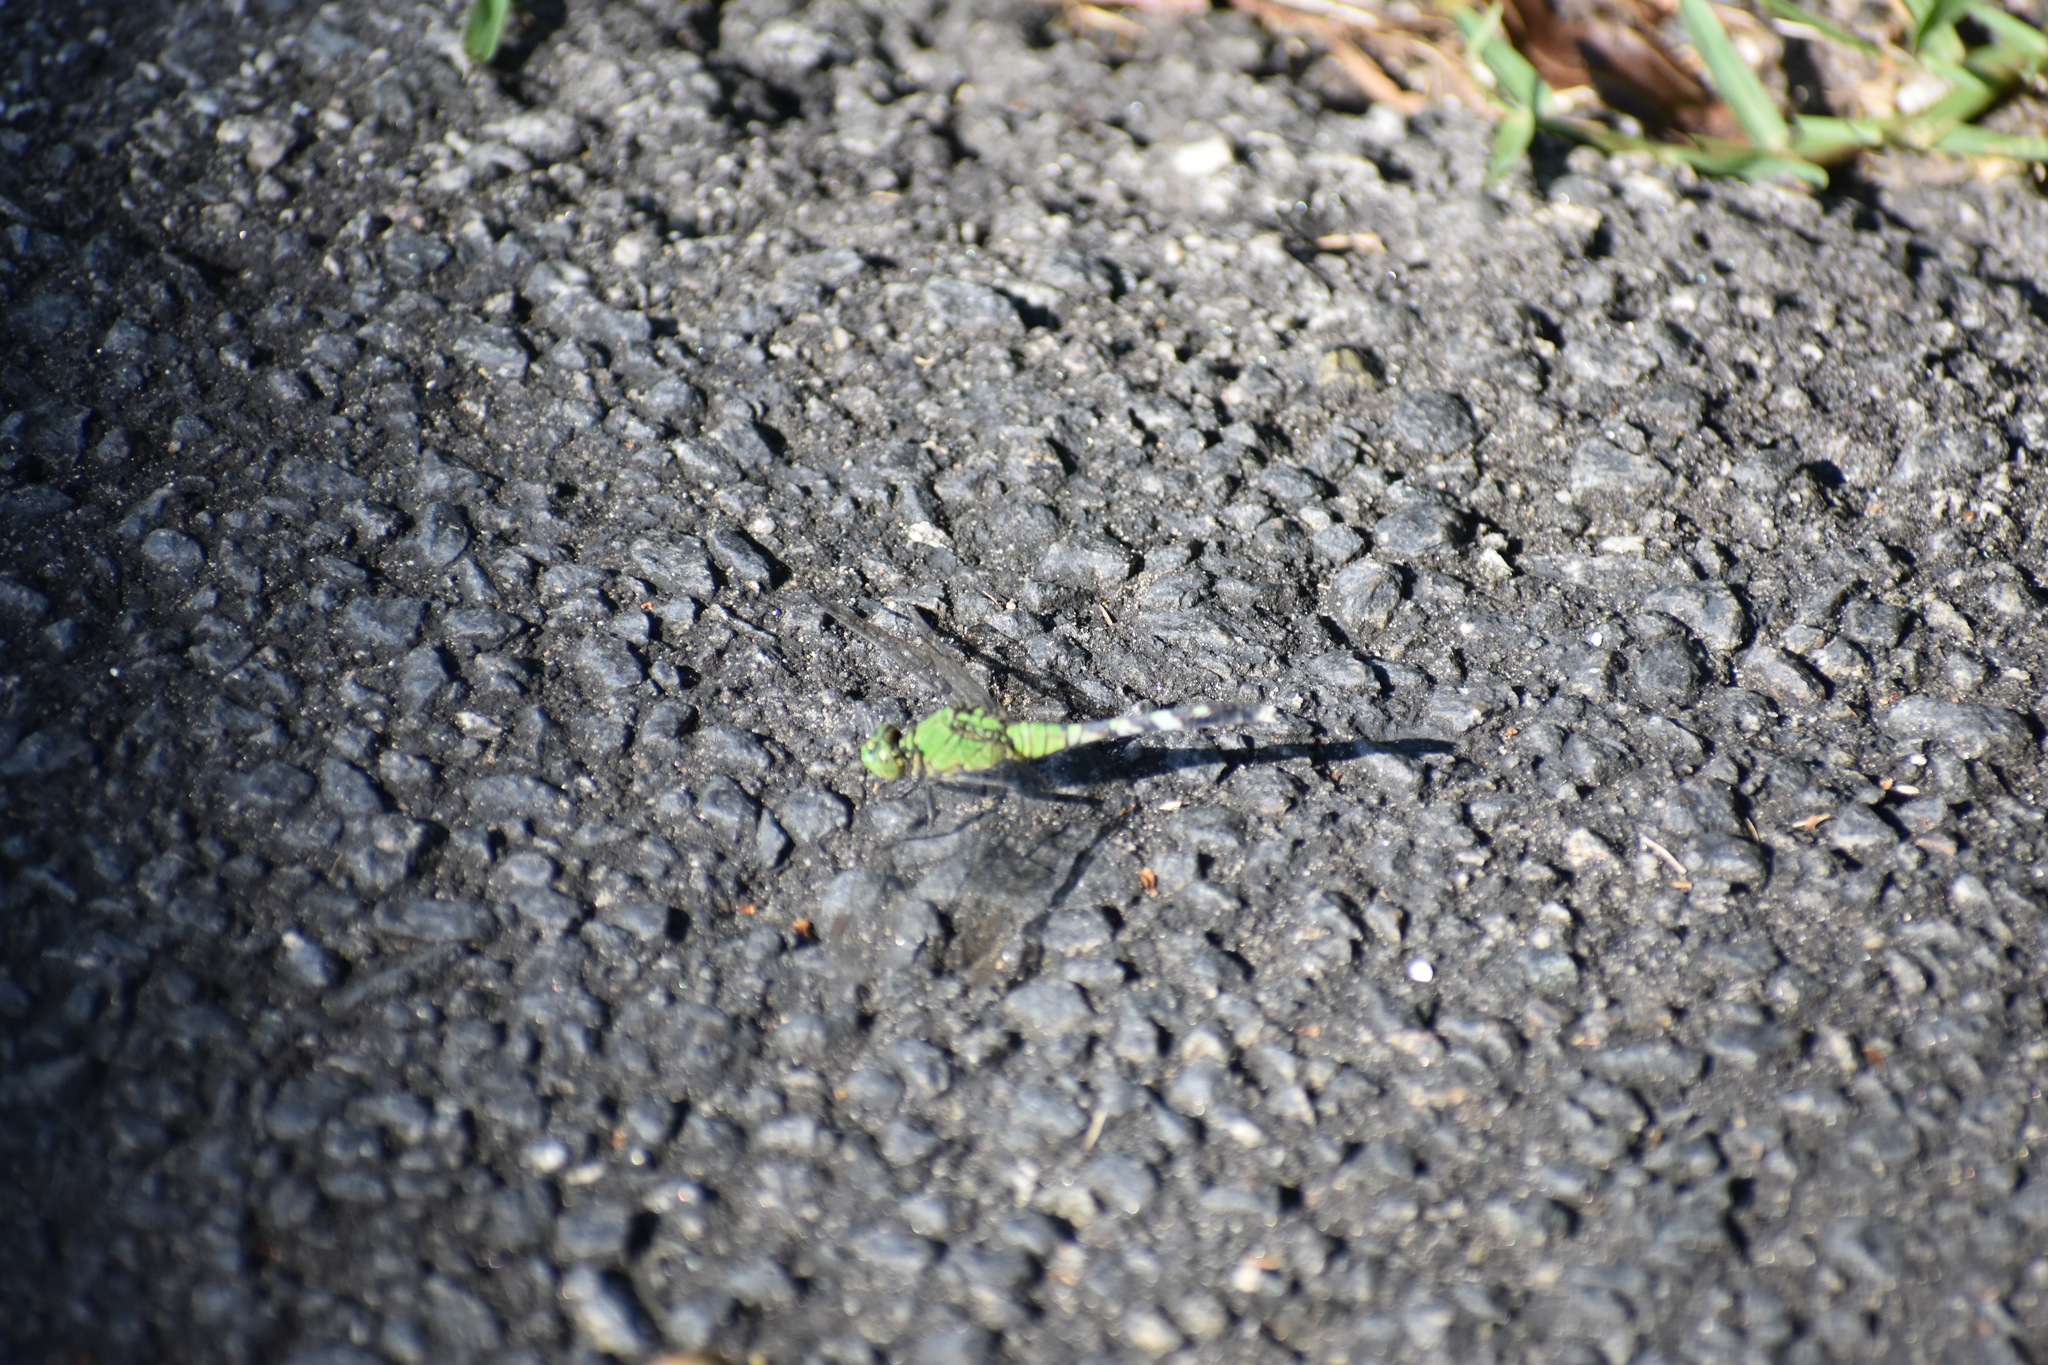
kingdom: Animalia
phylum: Arthropoda
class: Insecta
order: Odonata
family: Libellulidae
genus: Erythemis
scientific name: Erythemis simplicicollis
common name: Eastern pondhawk
